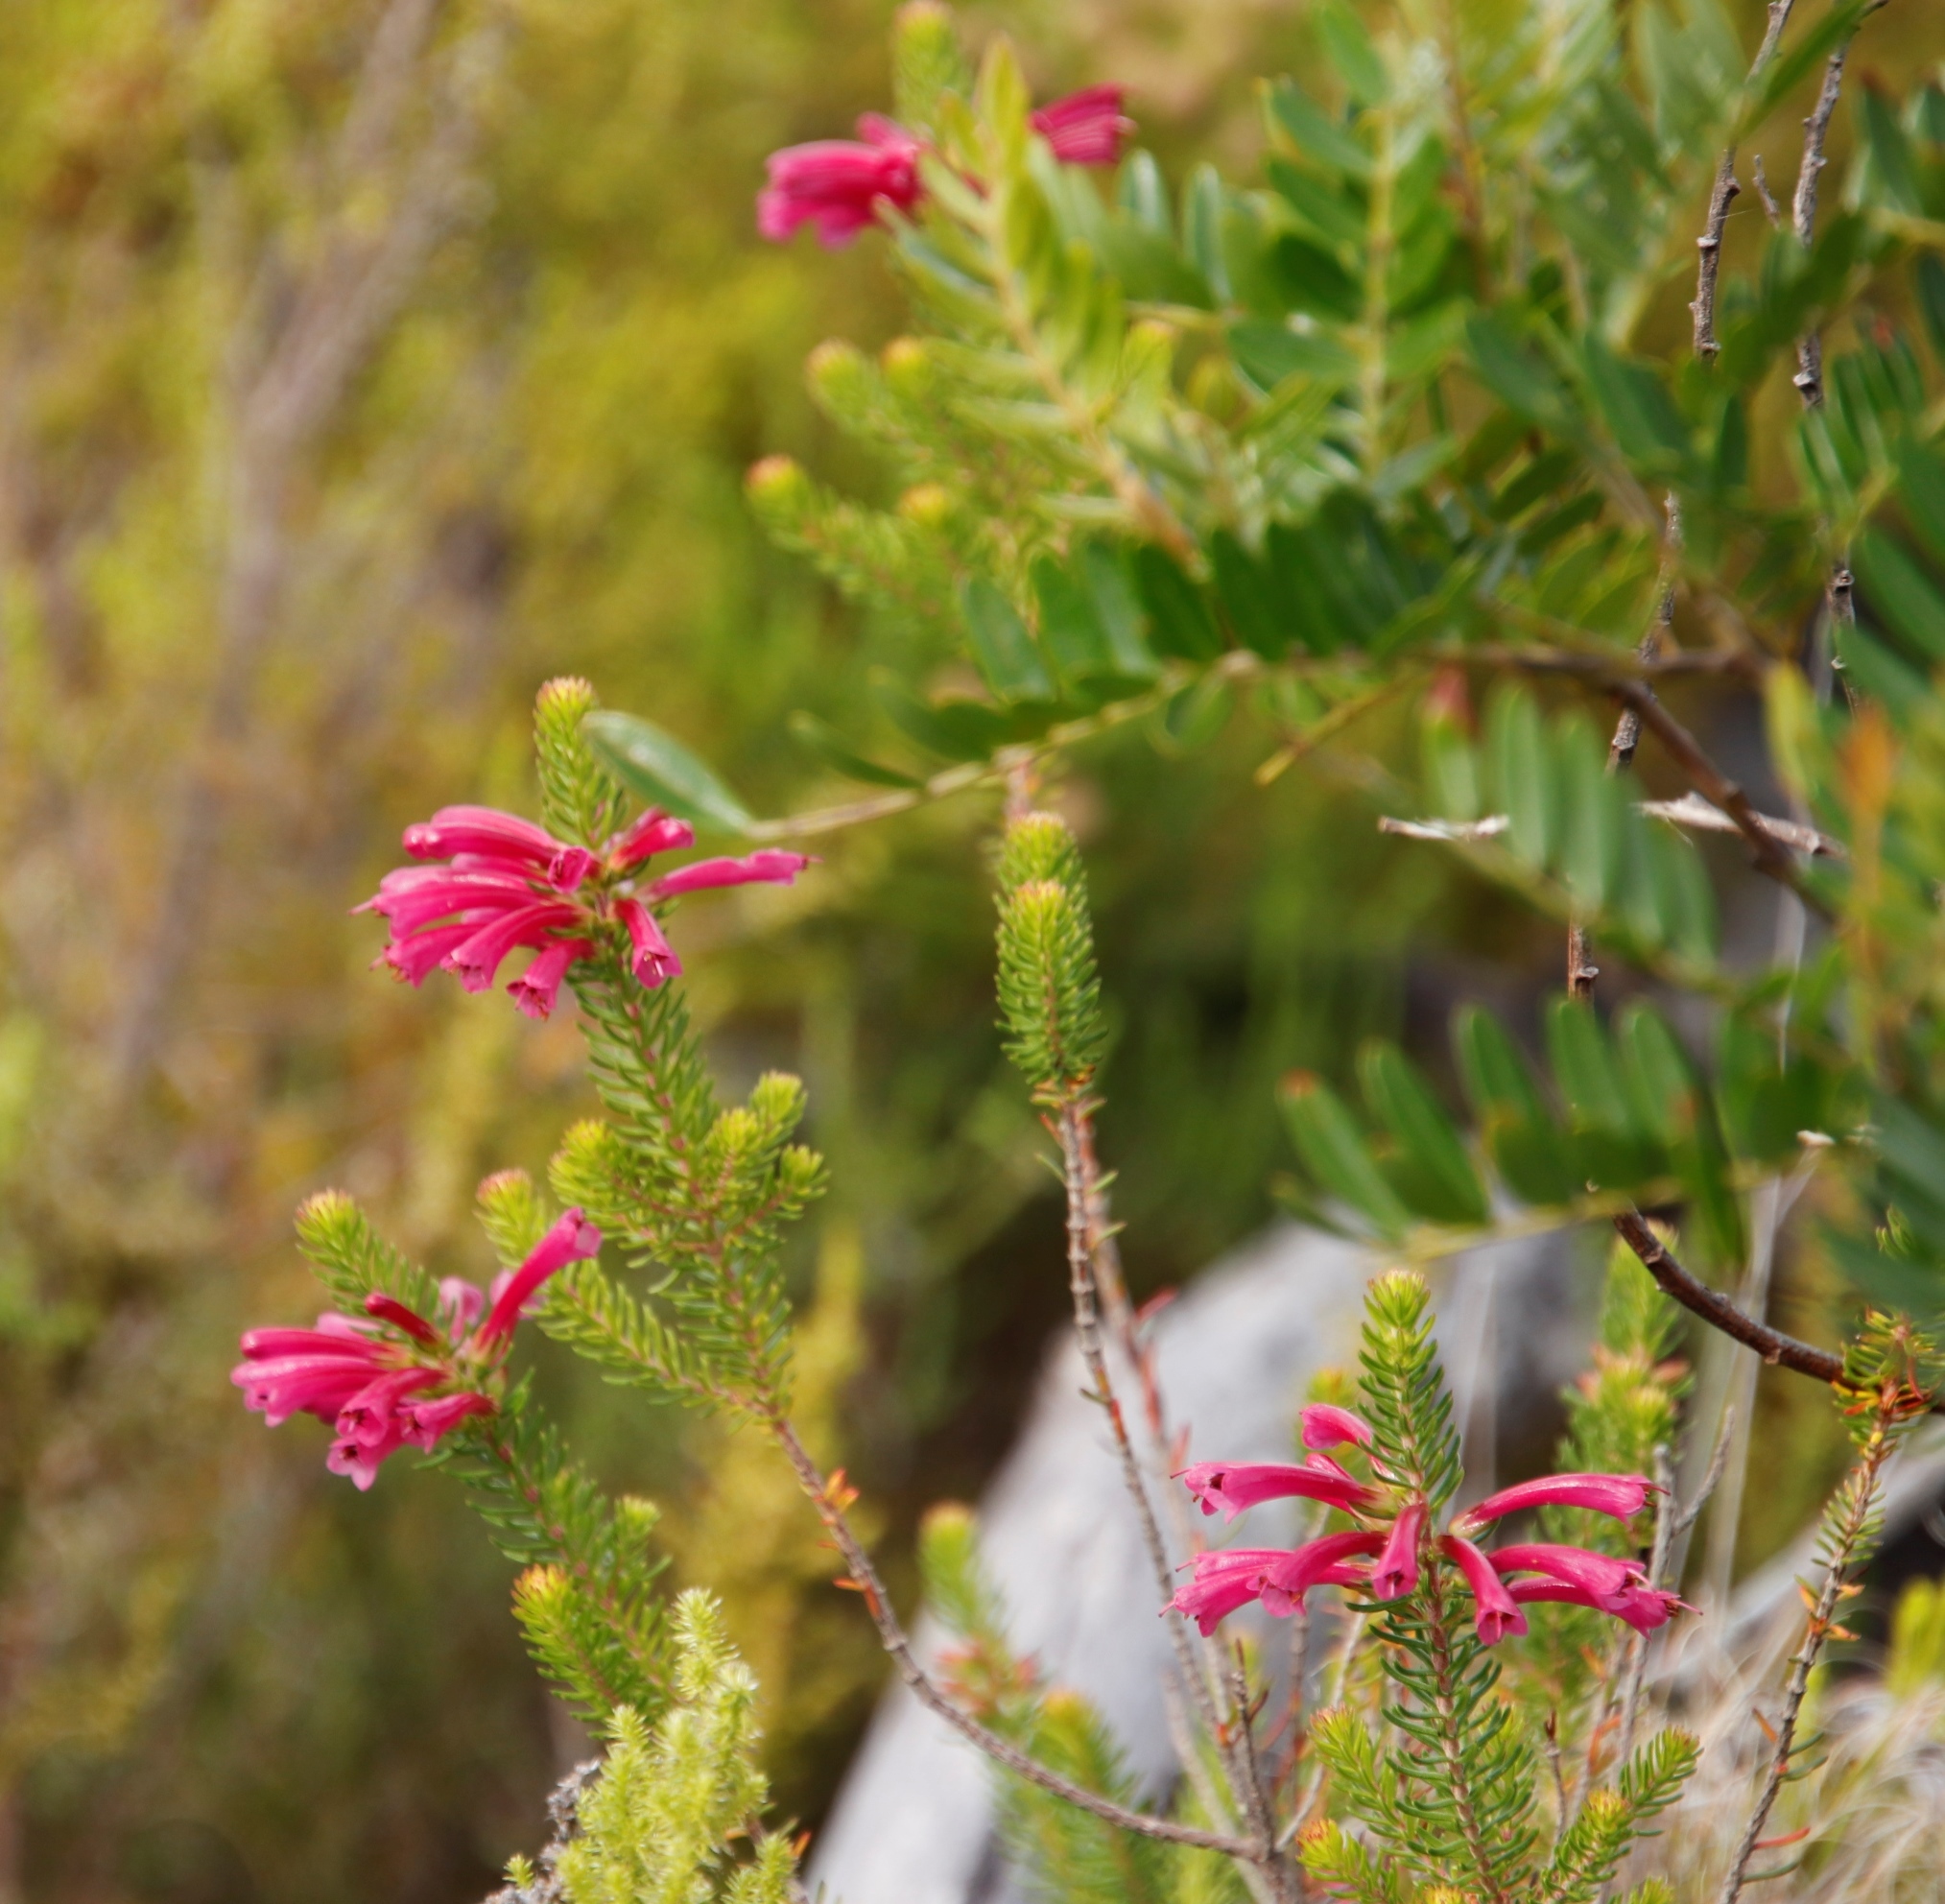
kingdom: Plantae
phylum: Tracheophyta
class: Magnoliopsida
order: Ericales
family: Ericaceae
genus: Erica
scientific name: Erica abietina
